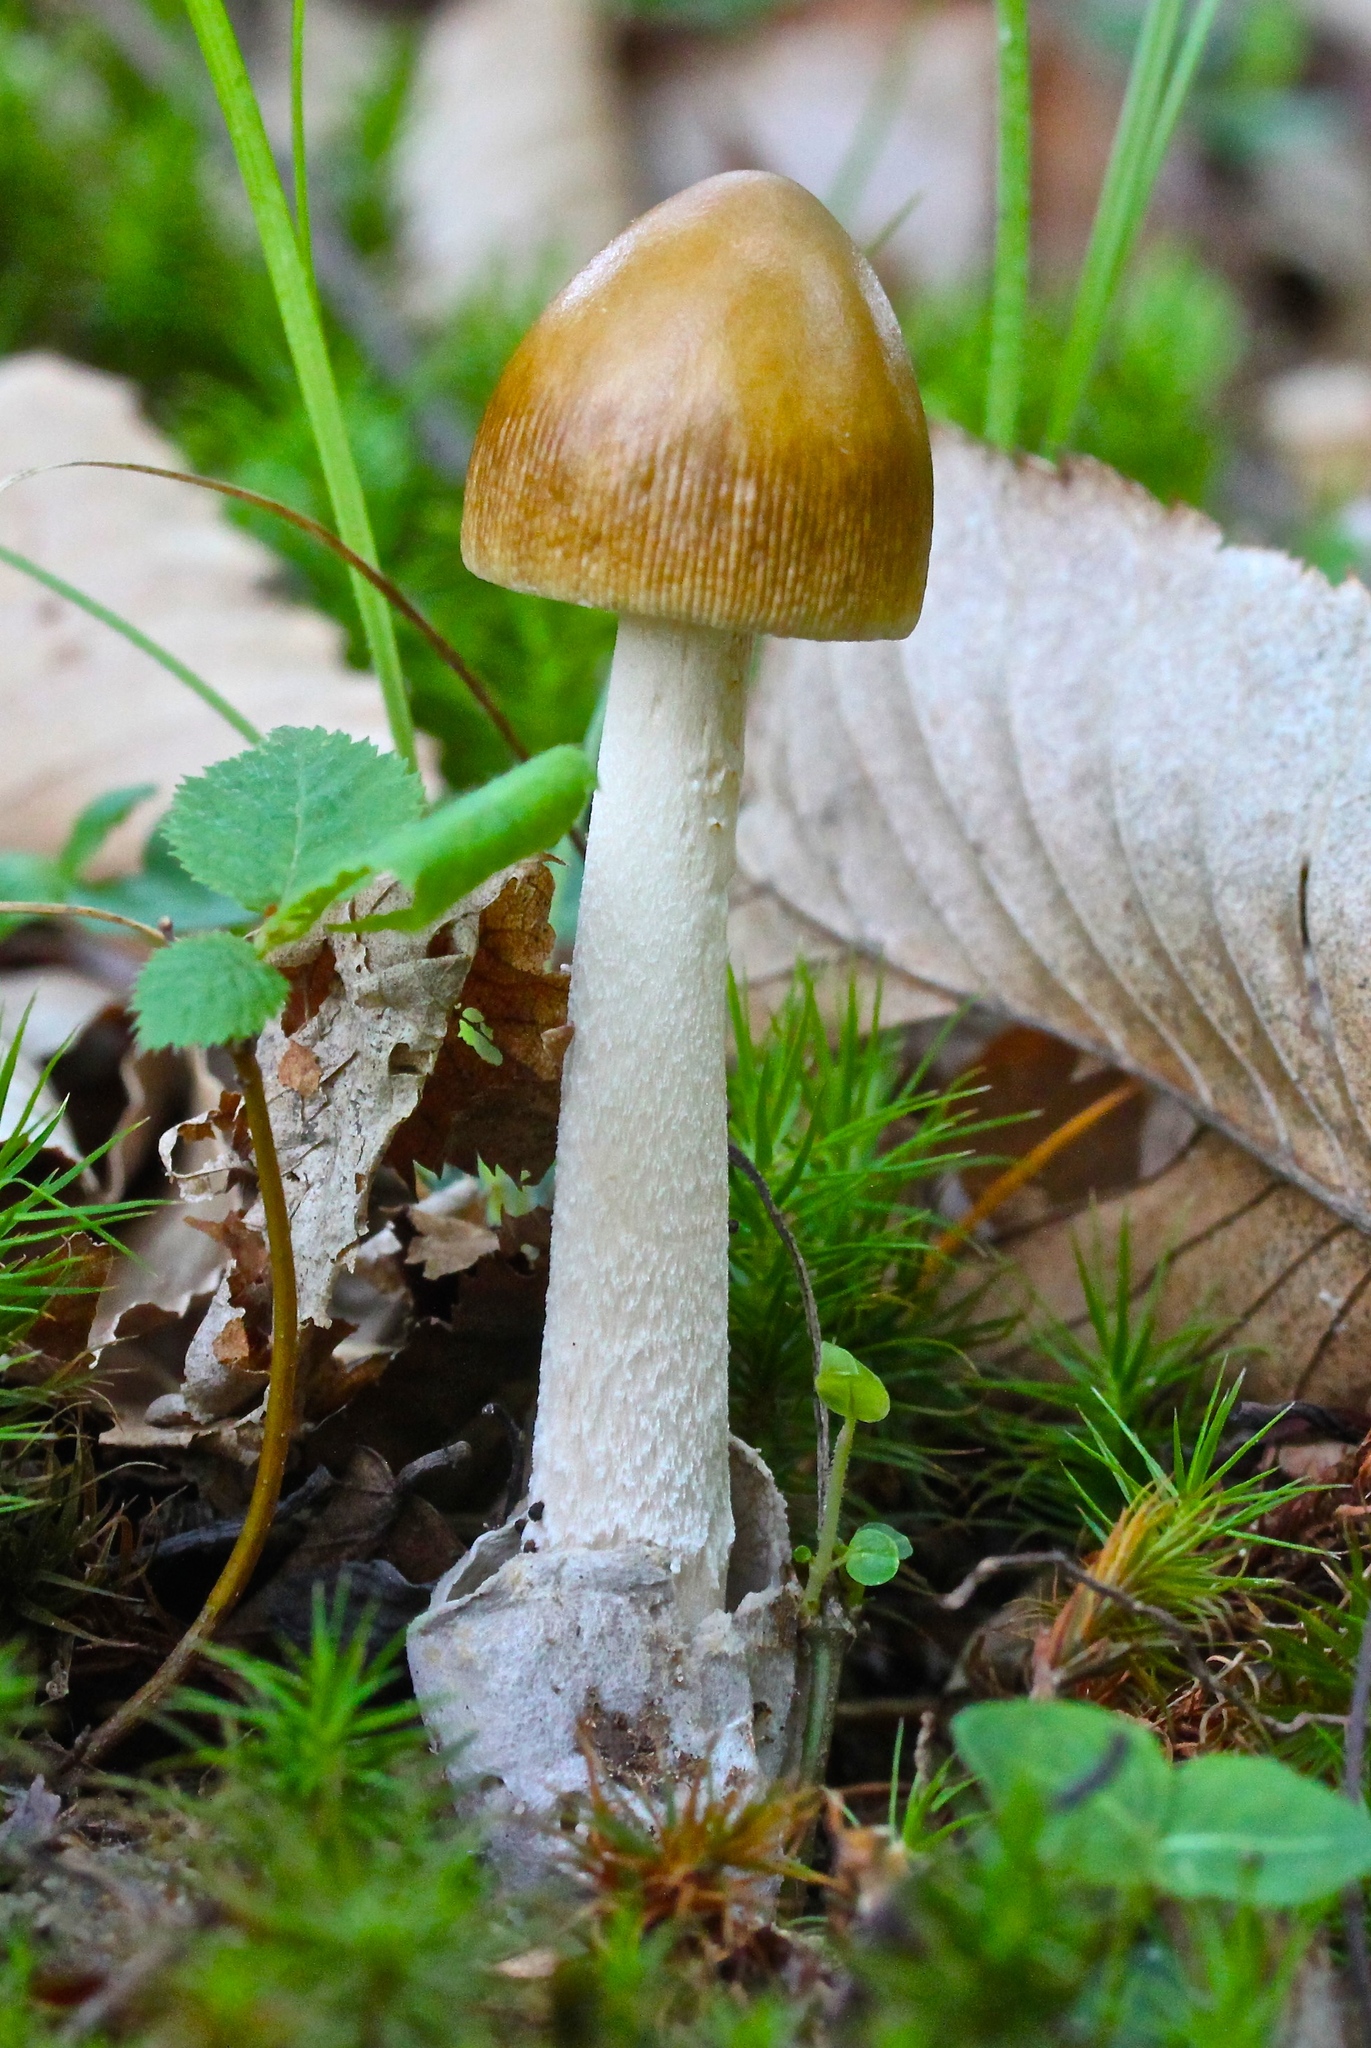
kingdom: Fungi
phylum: Basidiomycota
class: Agaricomycetes
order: Agaricales
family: Amanitaceae
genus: Amanita
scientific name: Amanita sinicoflava
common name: Mandarin yellow ringless amanita
